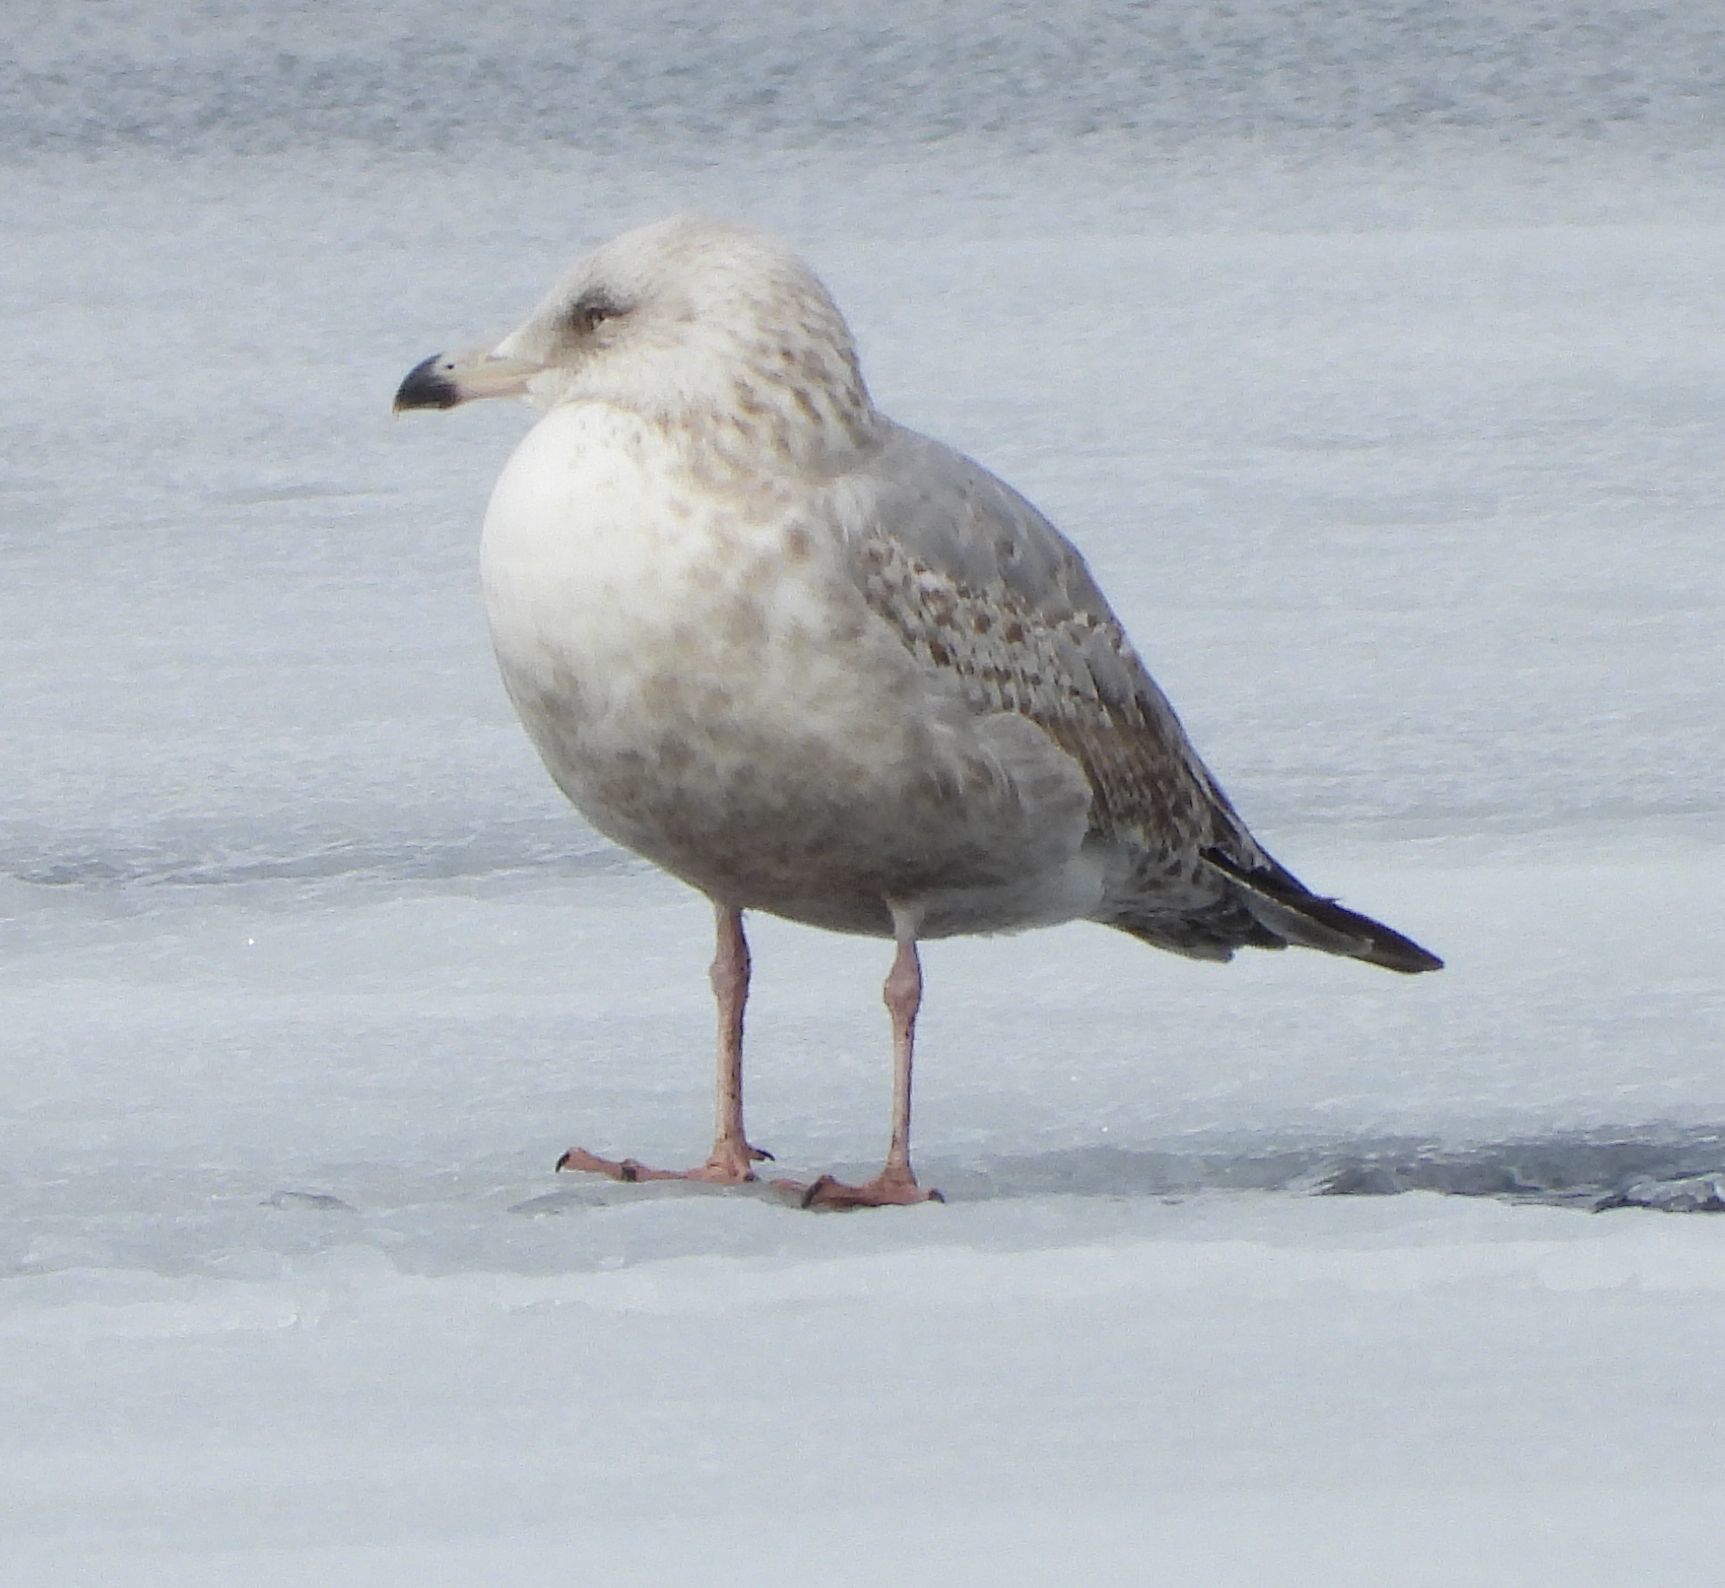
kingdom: Animalia
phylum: Chordata
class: Aves
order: Charadriiformes
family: Laridae
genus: Larus
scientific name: Larus argentatus
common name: Herring gull
